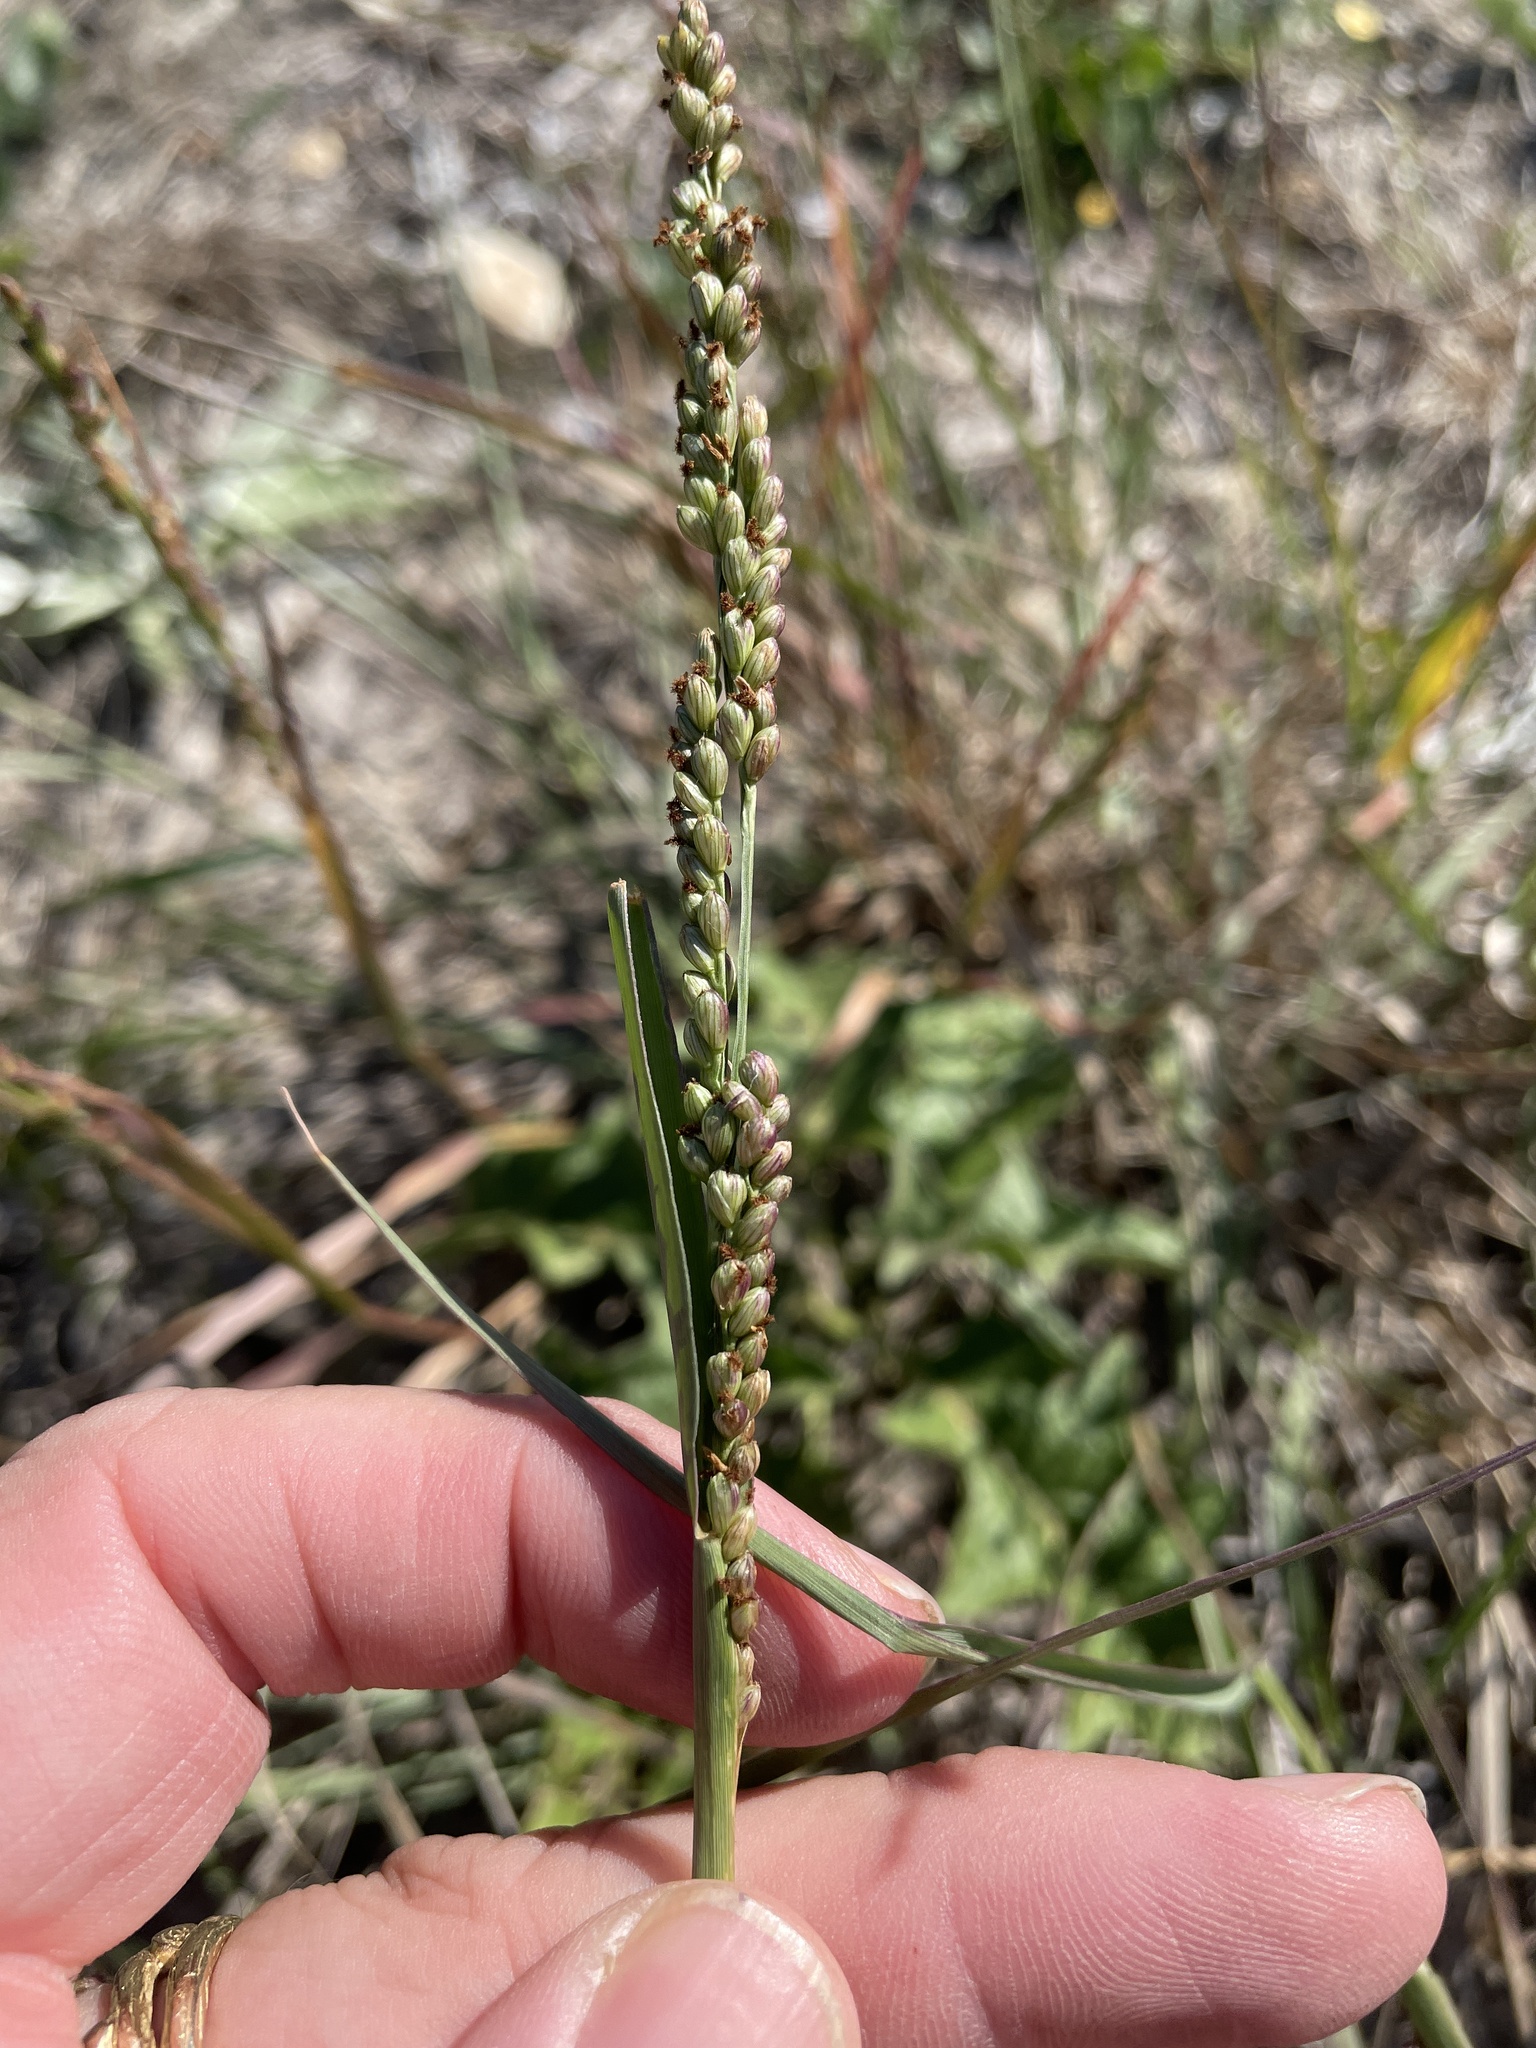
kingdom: Plantae
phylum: Tracheophyta
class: Liliopsida
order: Poales
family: Poaceae
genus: Hopia
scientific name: Hopia obtusa
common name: Vine-mesquite
